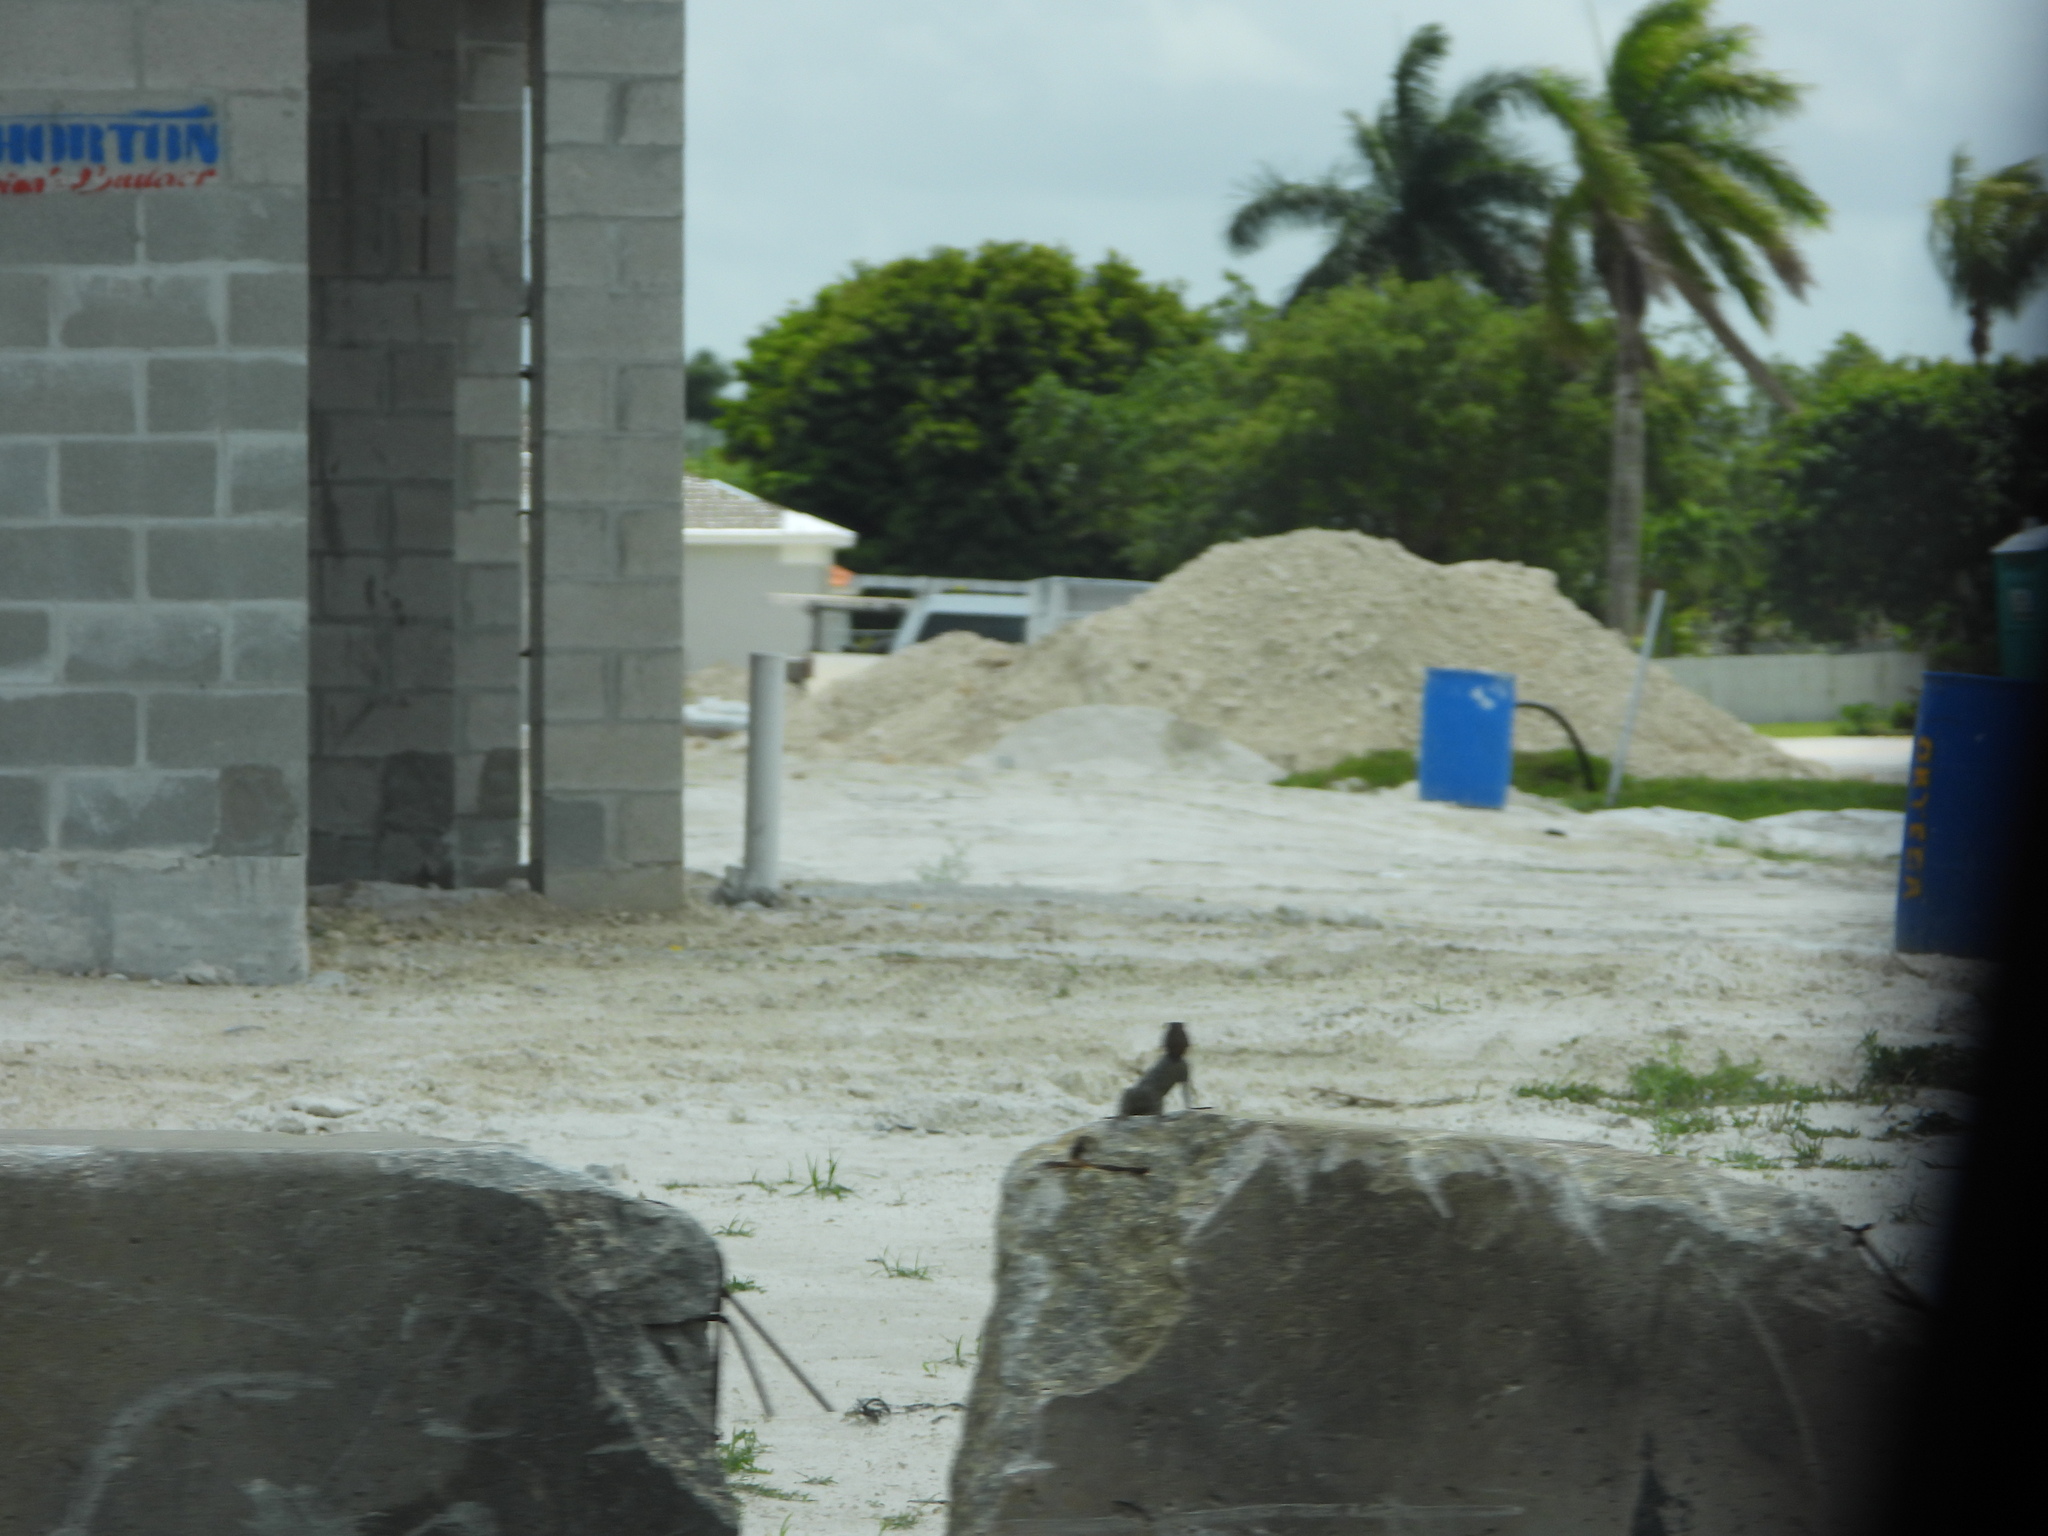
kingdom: Animalia
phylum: Chordata
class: Squamata
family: Agamidae
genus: Agama
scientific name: Agama picticauda
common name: Red-headed agama
